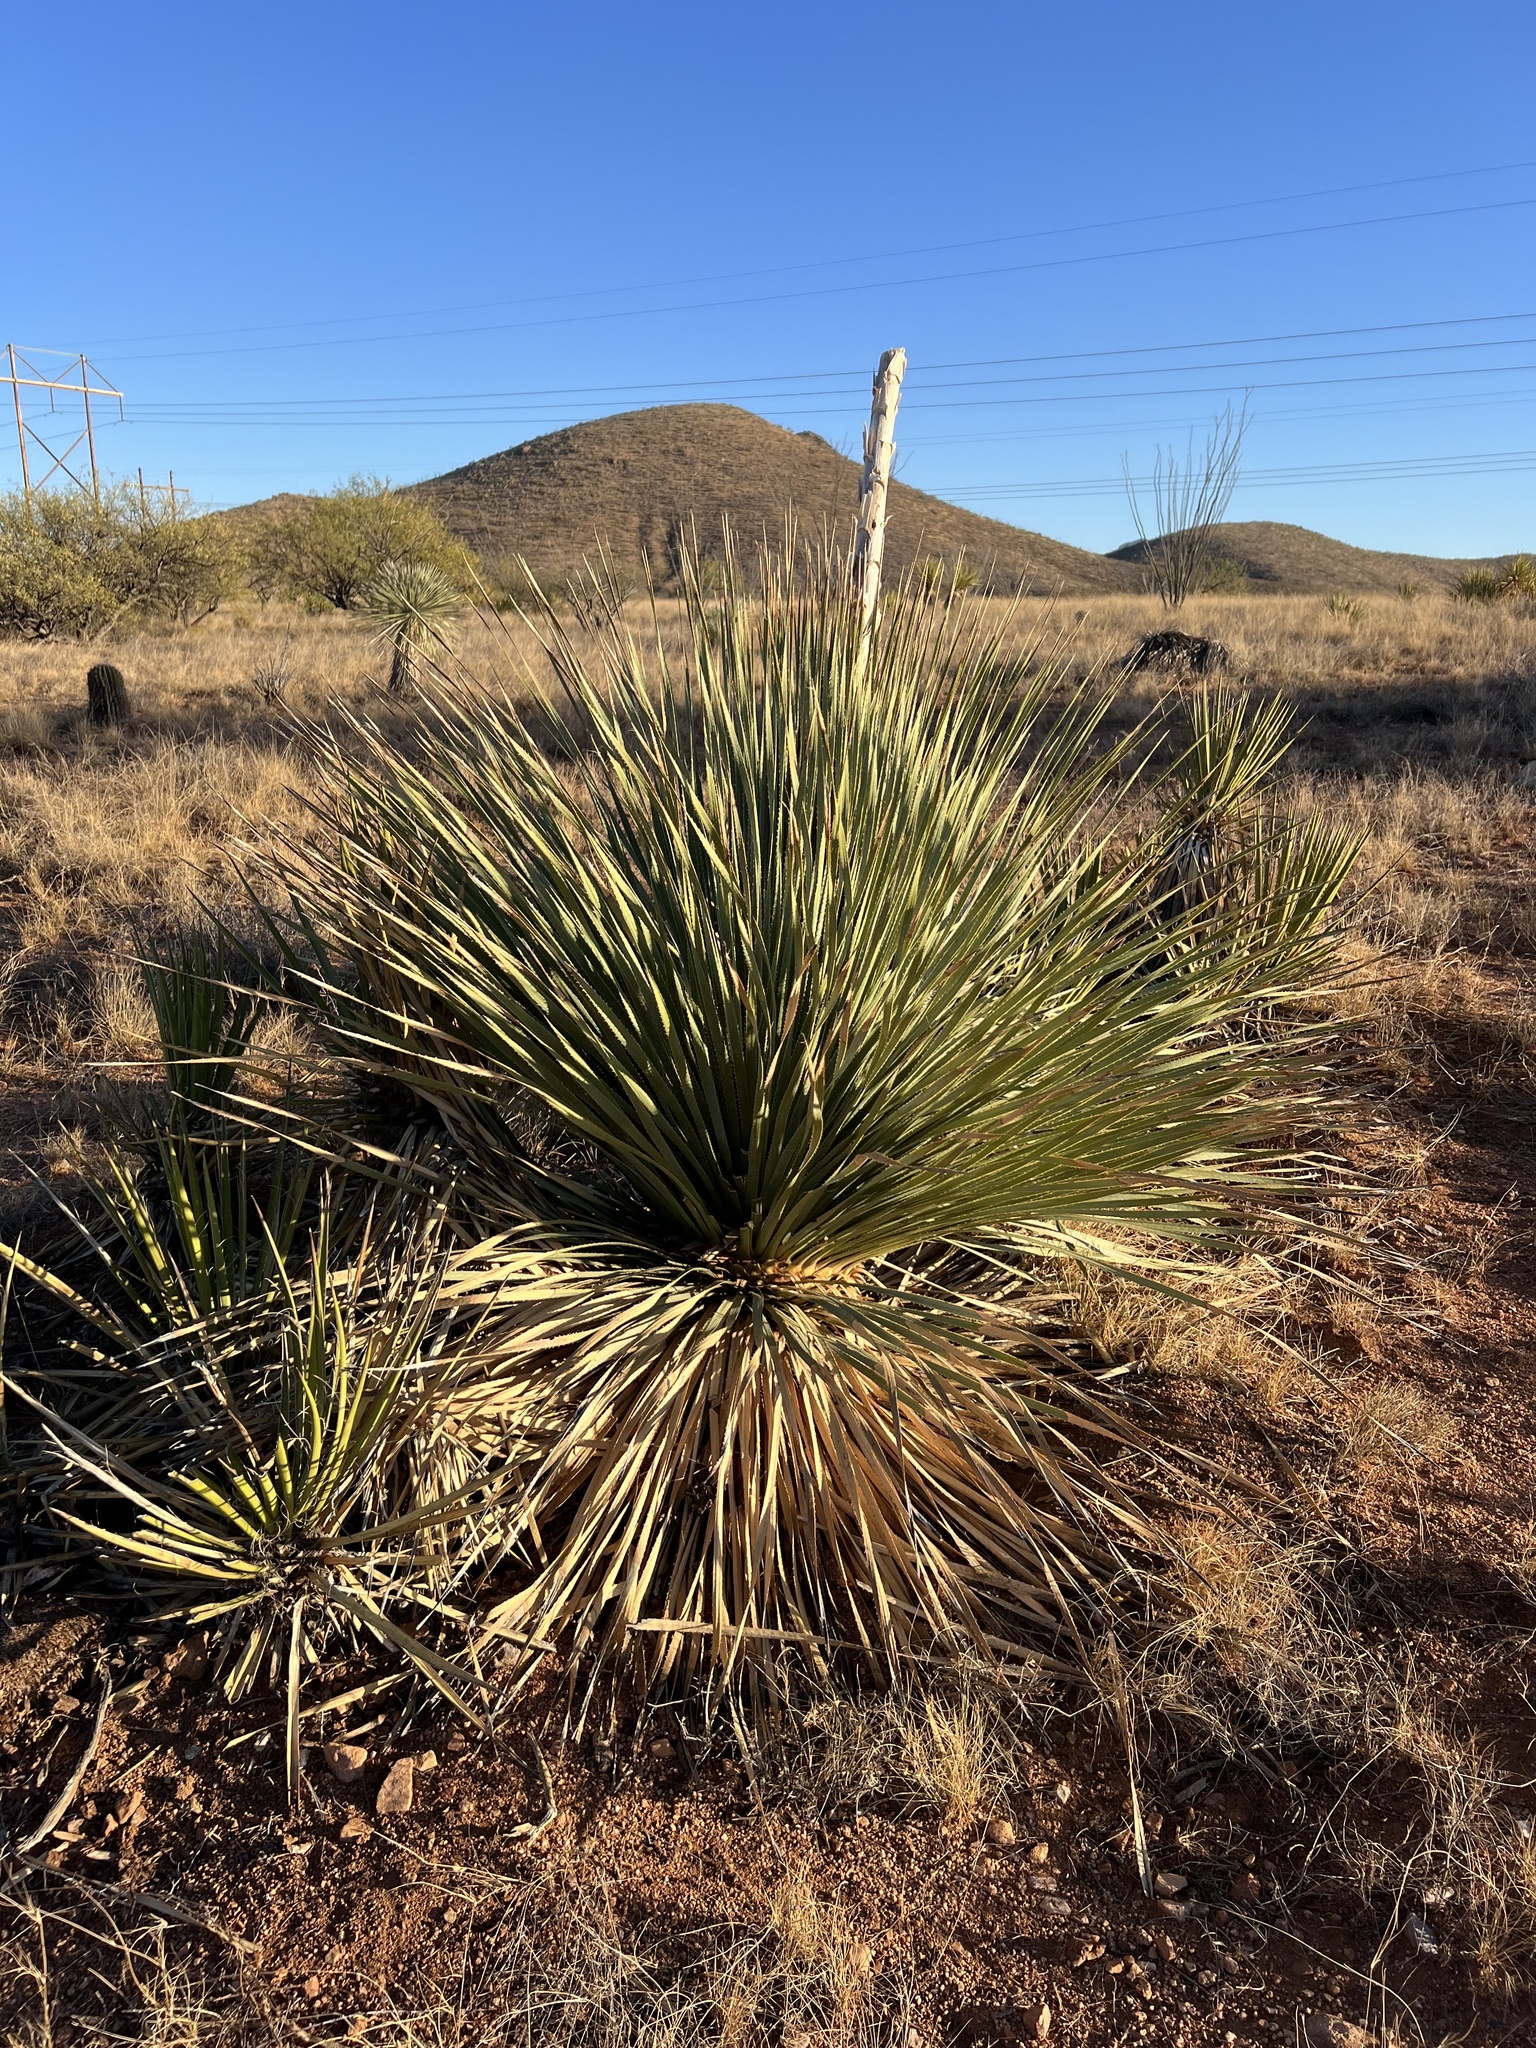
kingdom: Plantae
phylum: Tracheophyta
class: Liliopsida
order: Asparagales
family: Asparagaceae
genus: Dasylirion
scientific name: Dasylirion wheeleri
